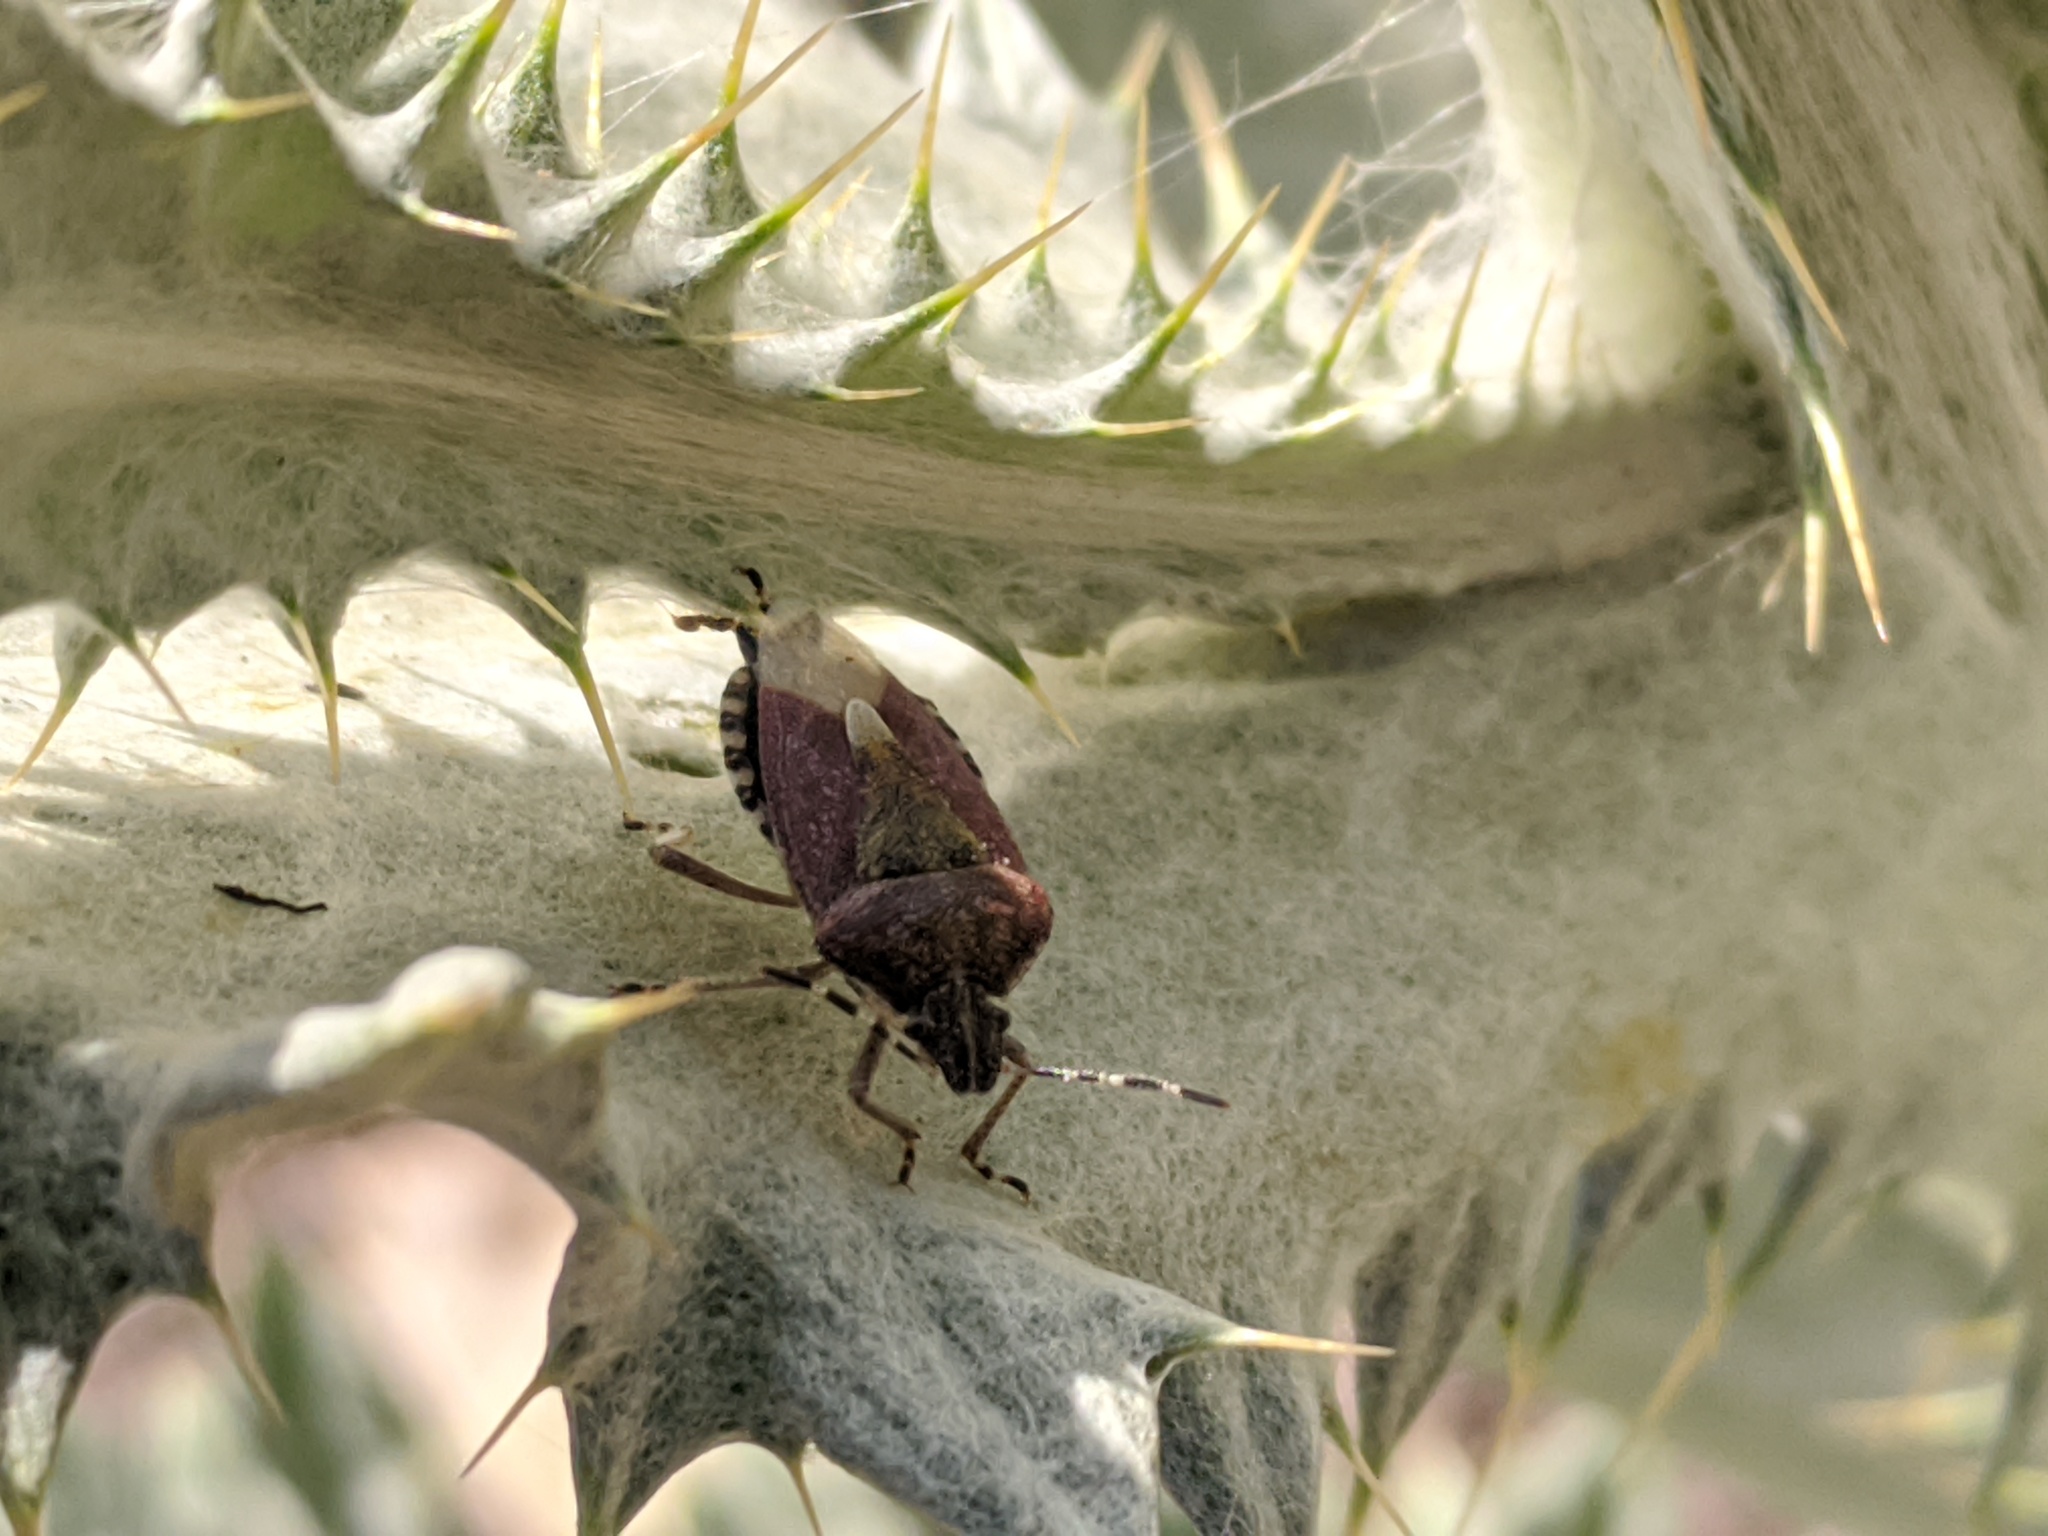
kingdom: Animalia
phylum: Arthropoda
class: Insecta
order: Hemiptera
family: Pentatomidae
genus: Dolycoris
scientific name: Dolycoris baccarum
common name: Sloe bug
